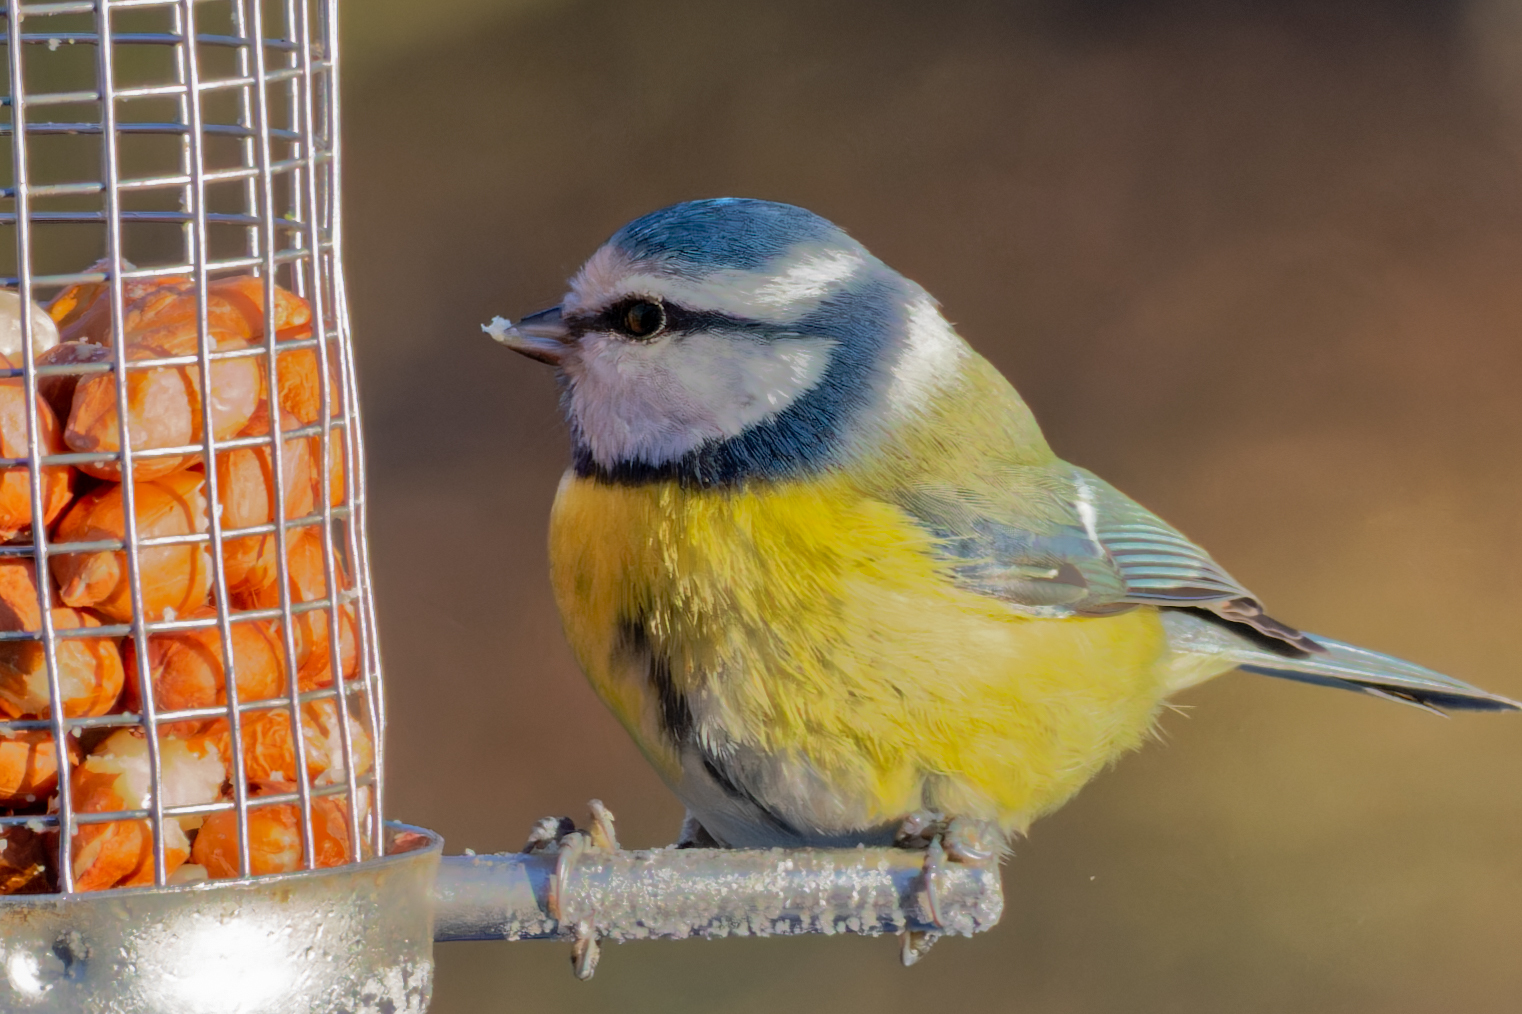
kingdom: Animalia
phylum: Chordata
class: Aves
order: Passeriformes
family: Paridae
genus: Cyanistes
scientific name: Cyanistes caeruleus
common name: Eurasian blue tit
